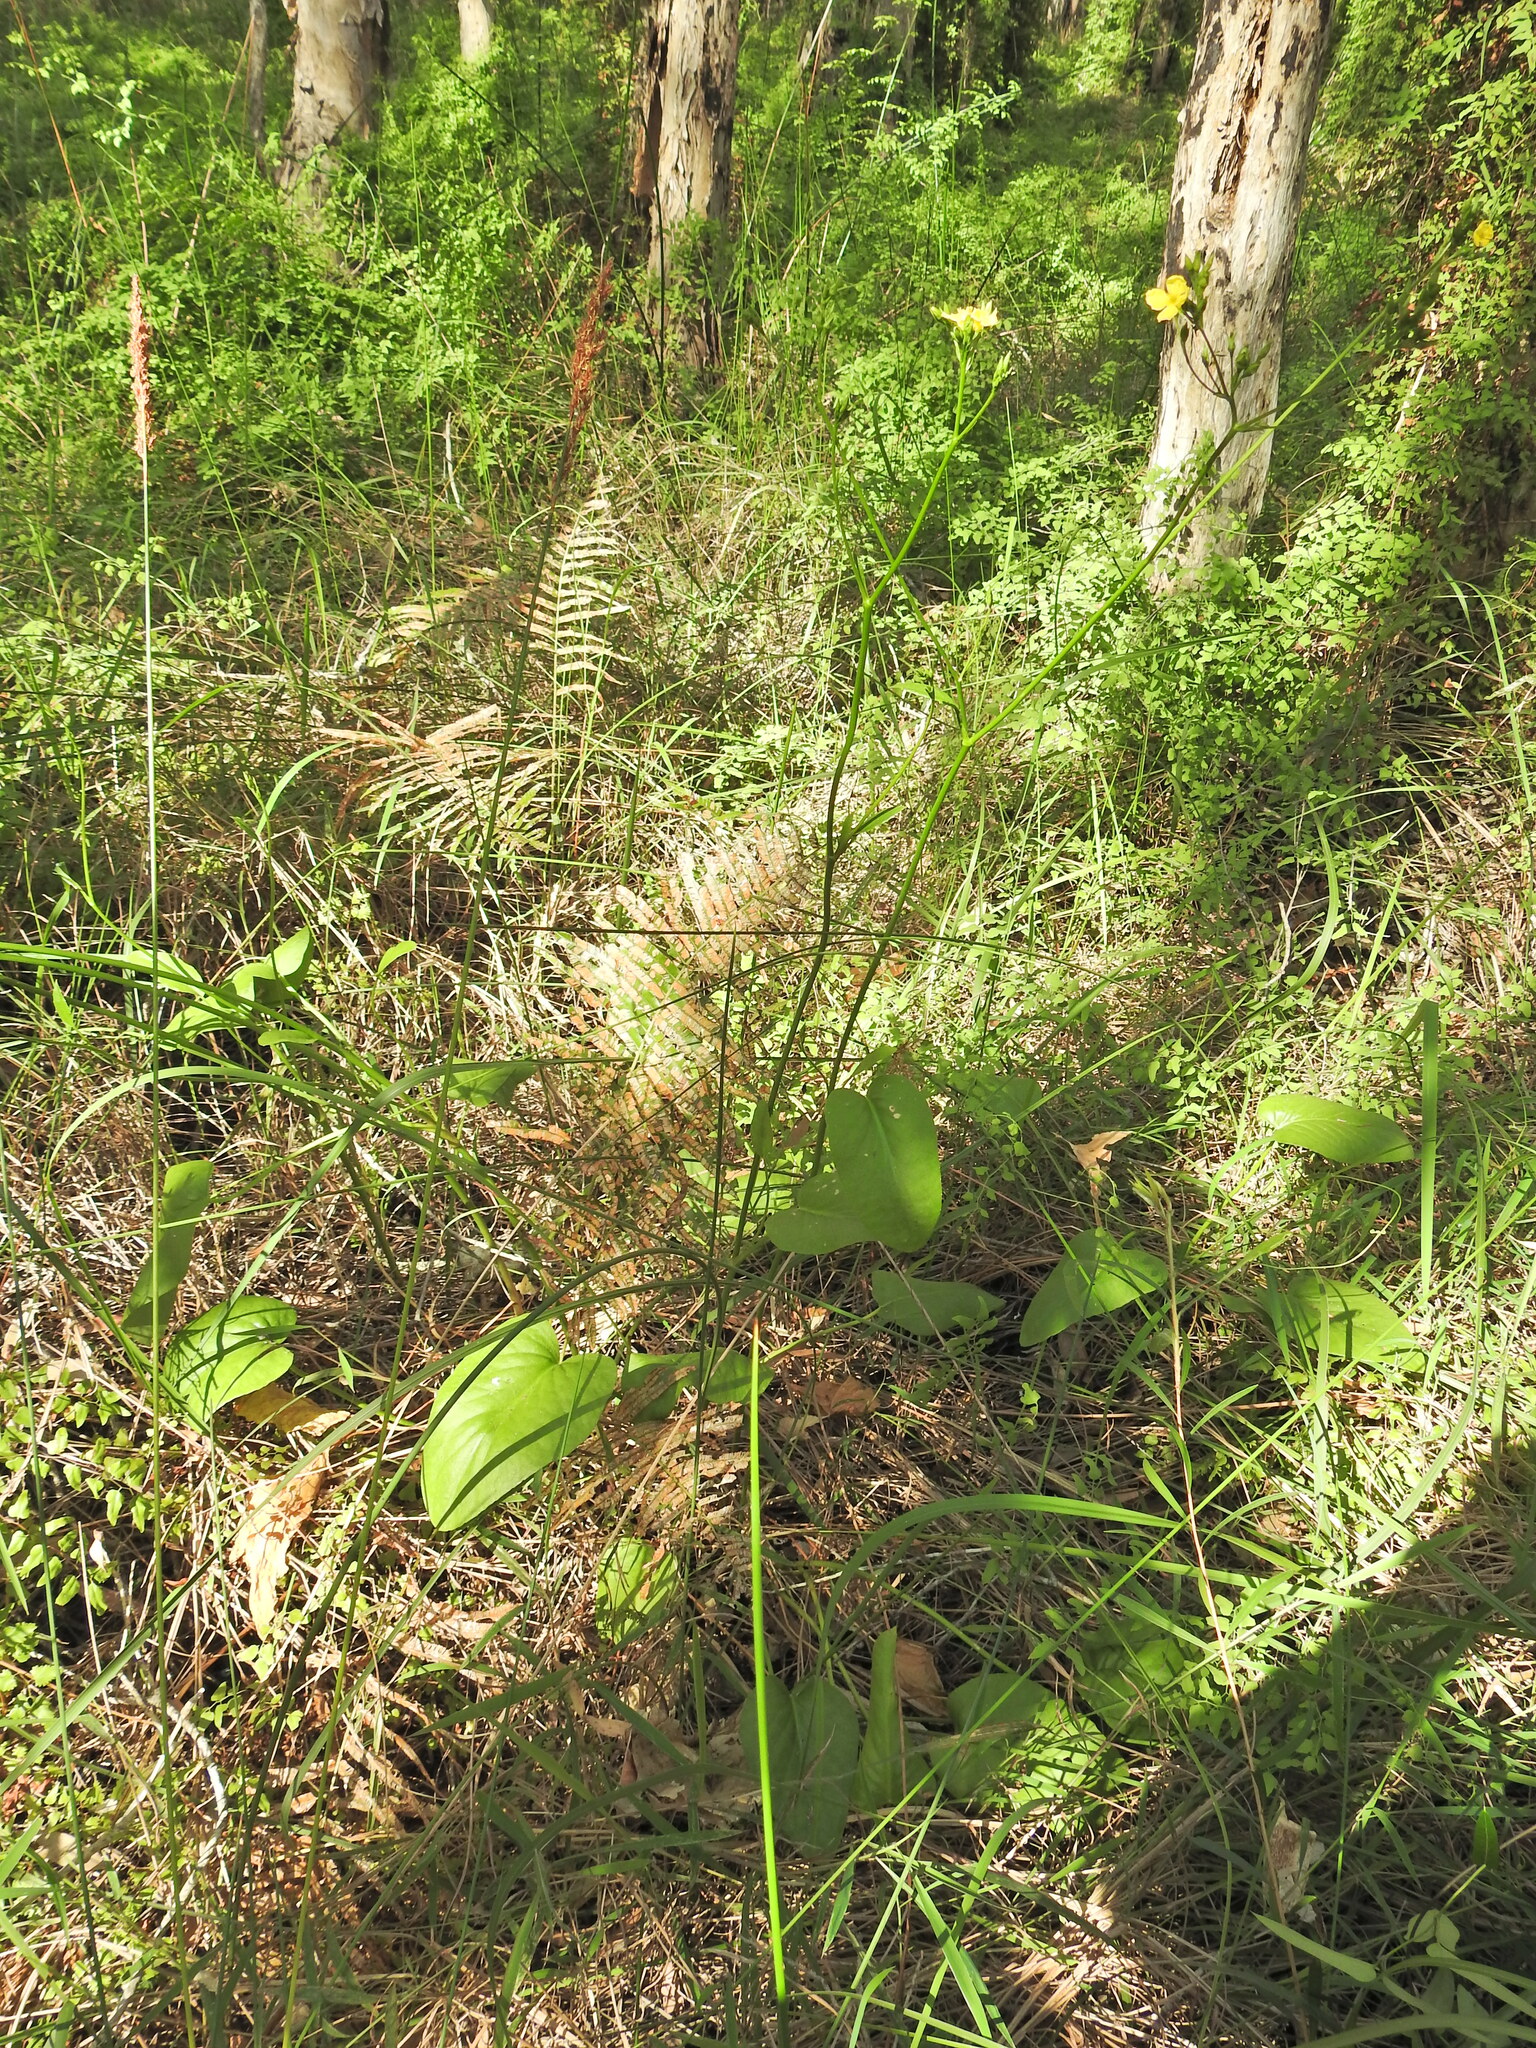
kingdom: Plantae
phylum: Tracheophyta
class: Magnoliopsida
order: Asterales
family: Menyanthaceae
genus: Liparophyllum
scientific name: Liparophyllum exaltatum
